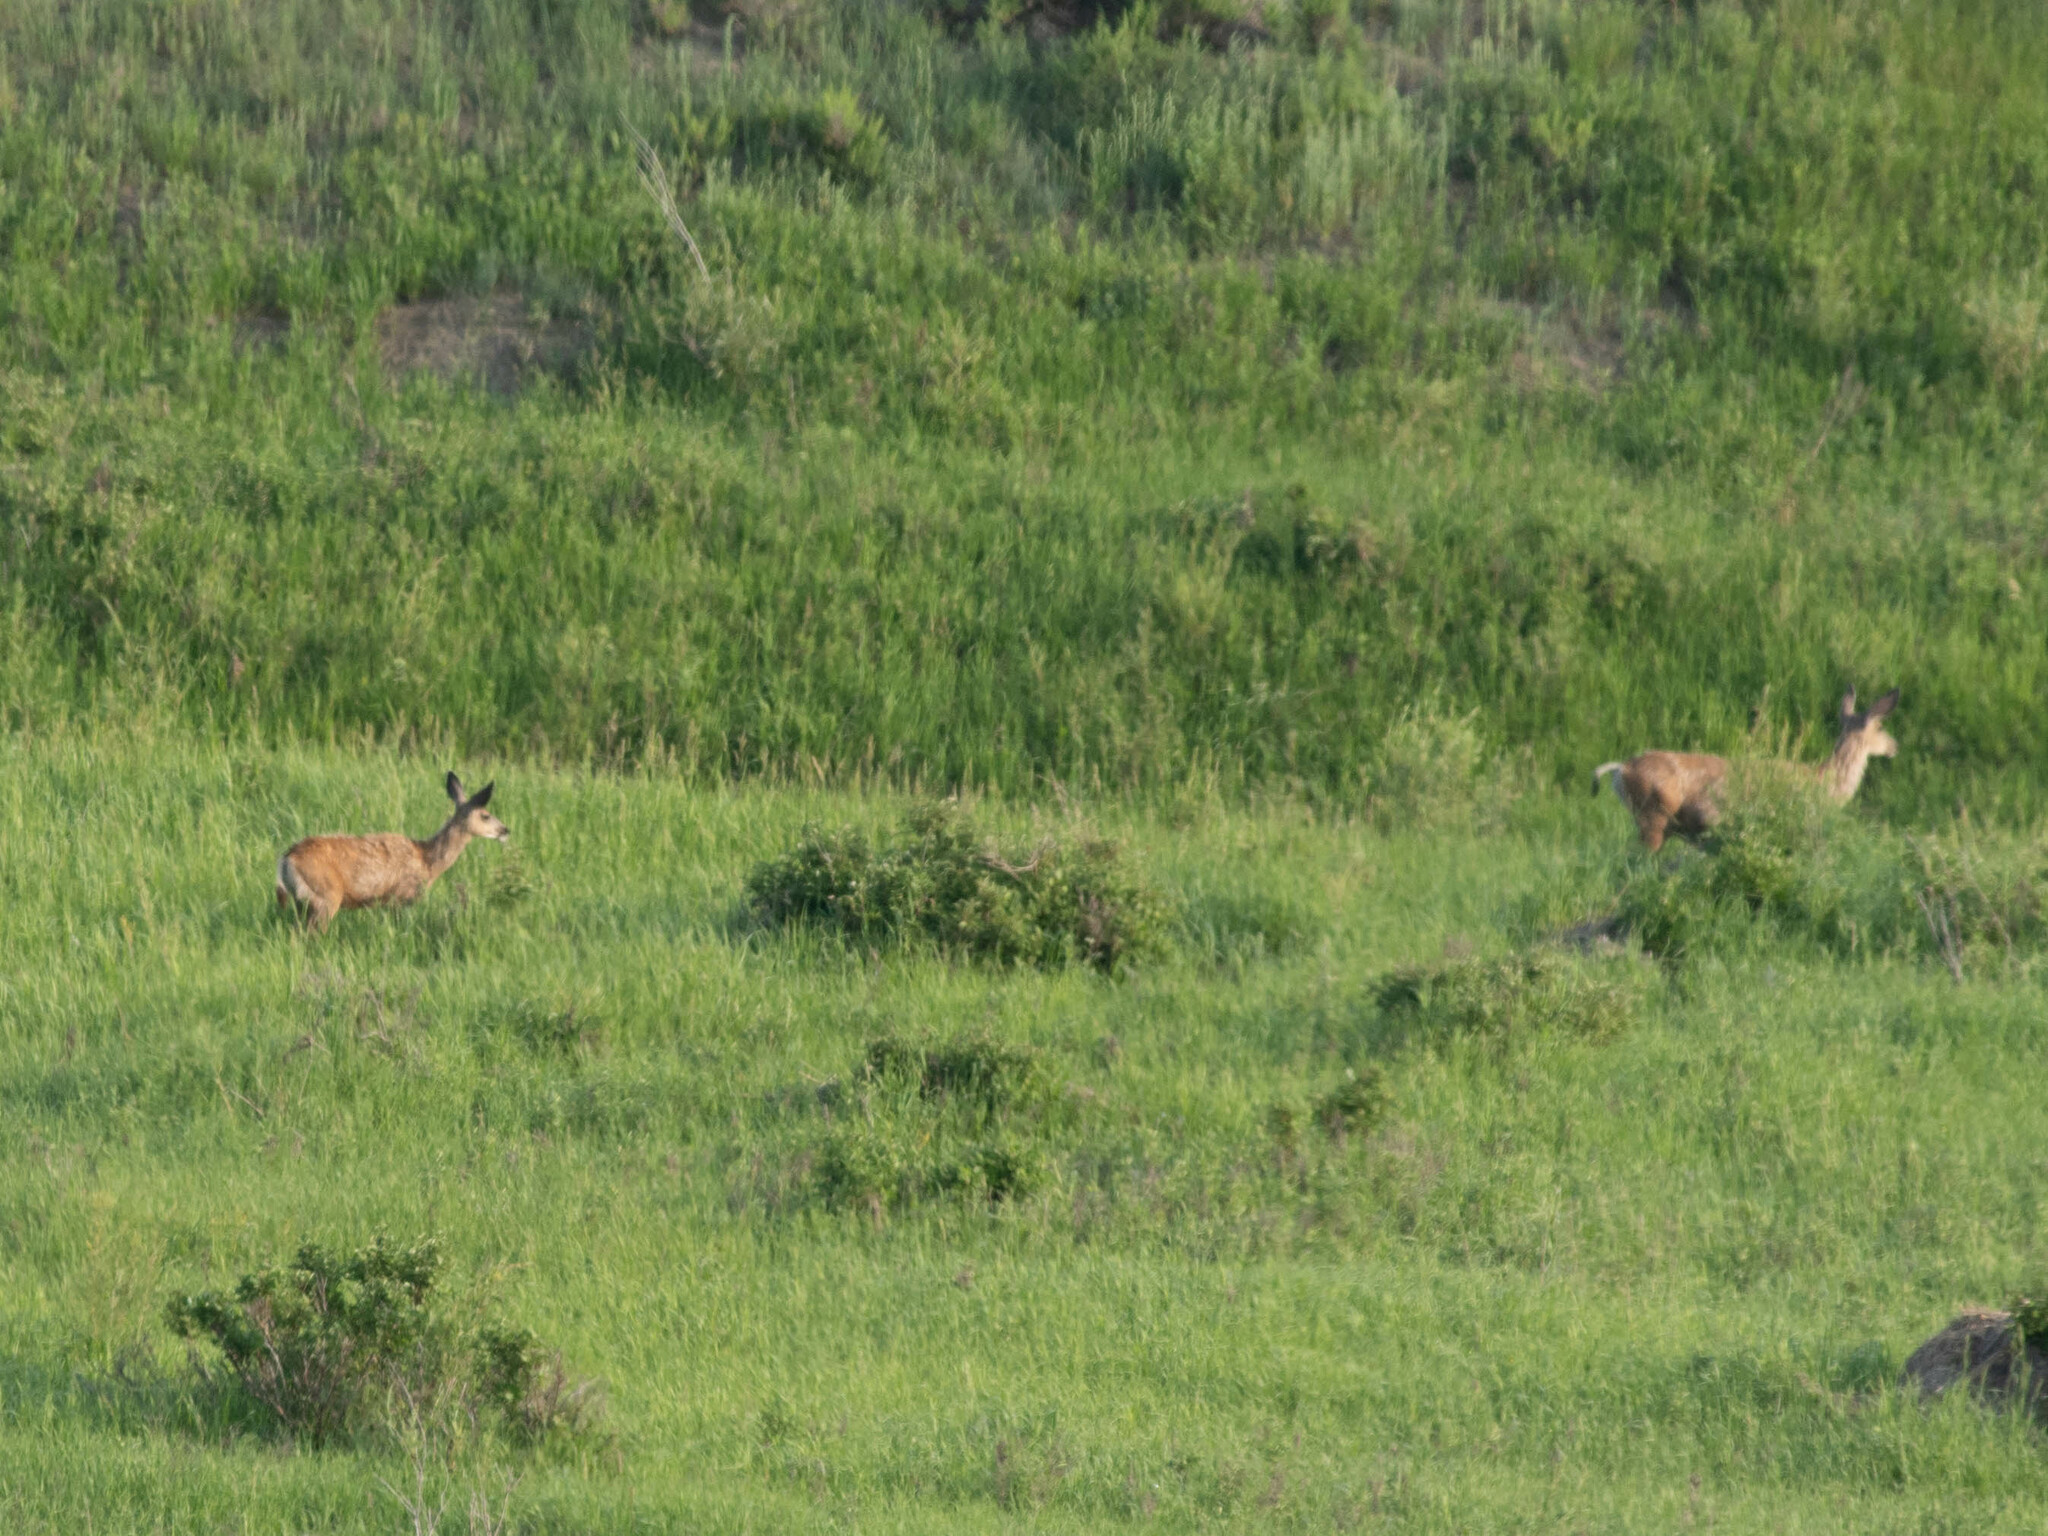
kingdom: Animalia
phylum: Chordata
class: Mammalia
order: Artiodactyla
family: Cervidae
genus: Odocoileus
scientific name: Odocoileus hemionus
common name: Mule deer
